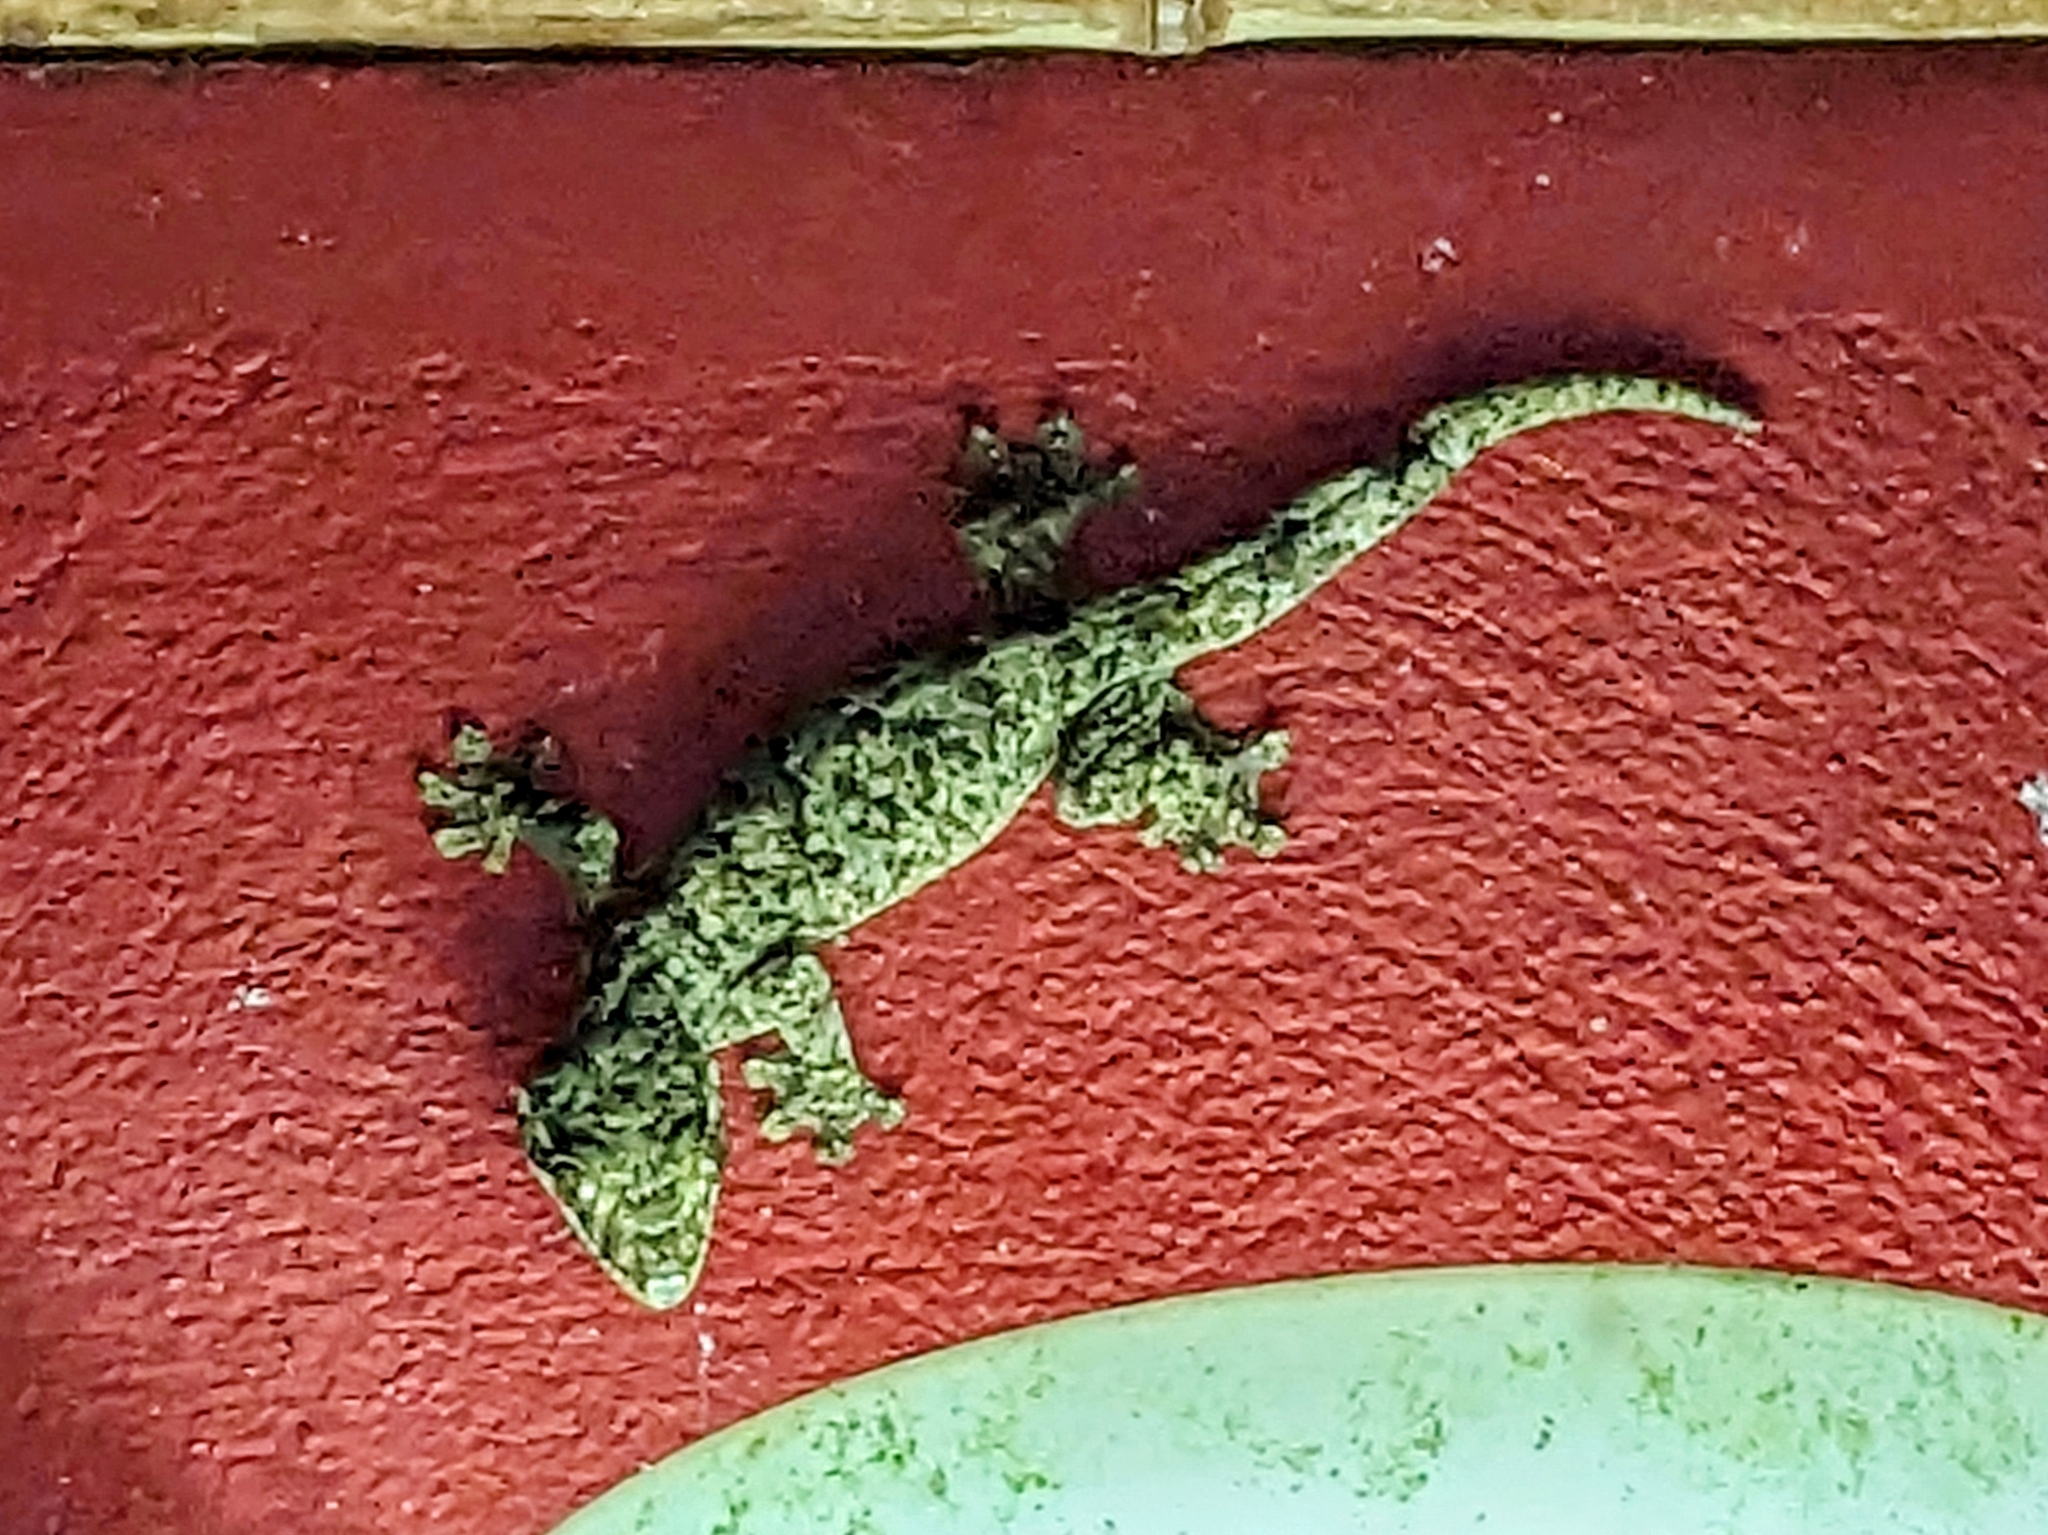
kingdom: Animalia
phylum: Chordata
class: Squamata
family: Phyllodactylidae
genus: Thecadactylus
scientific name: Thecadactylus rapicauda
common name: Turnip-tailed gecko
